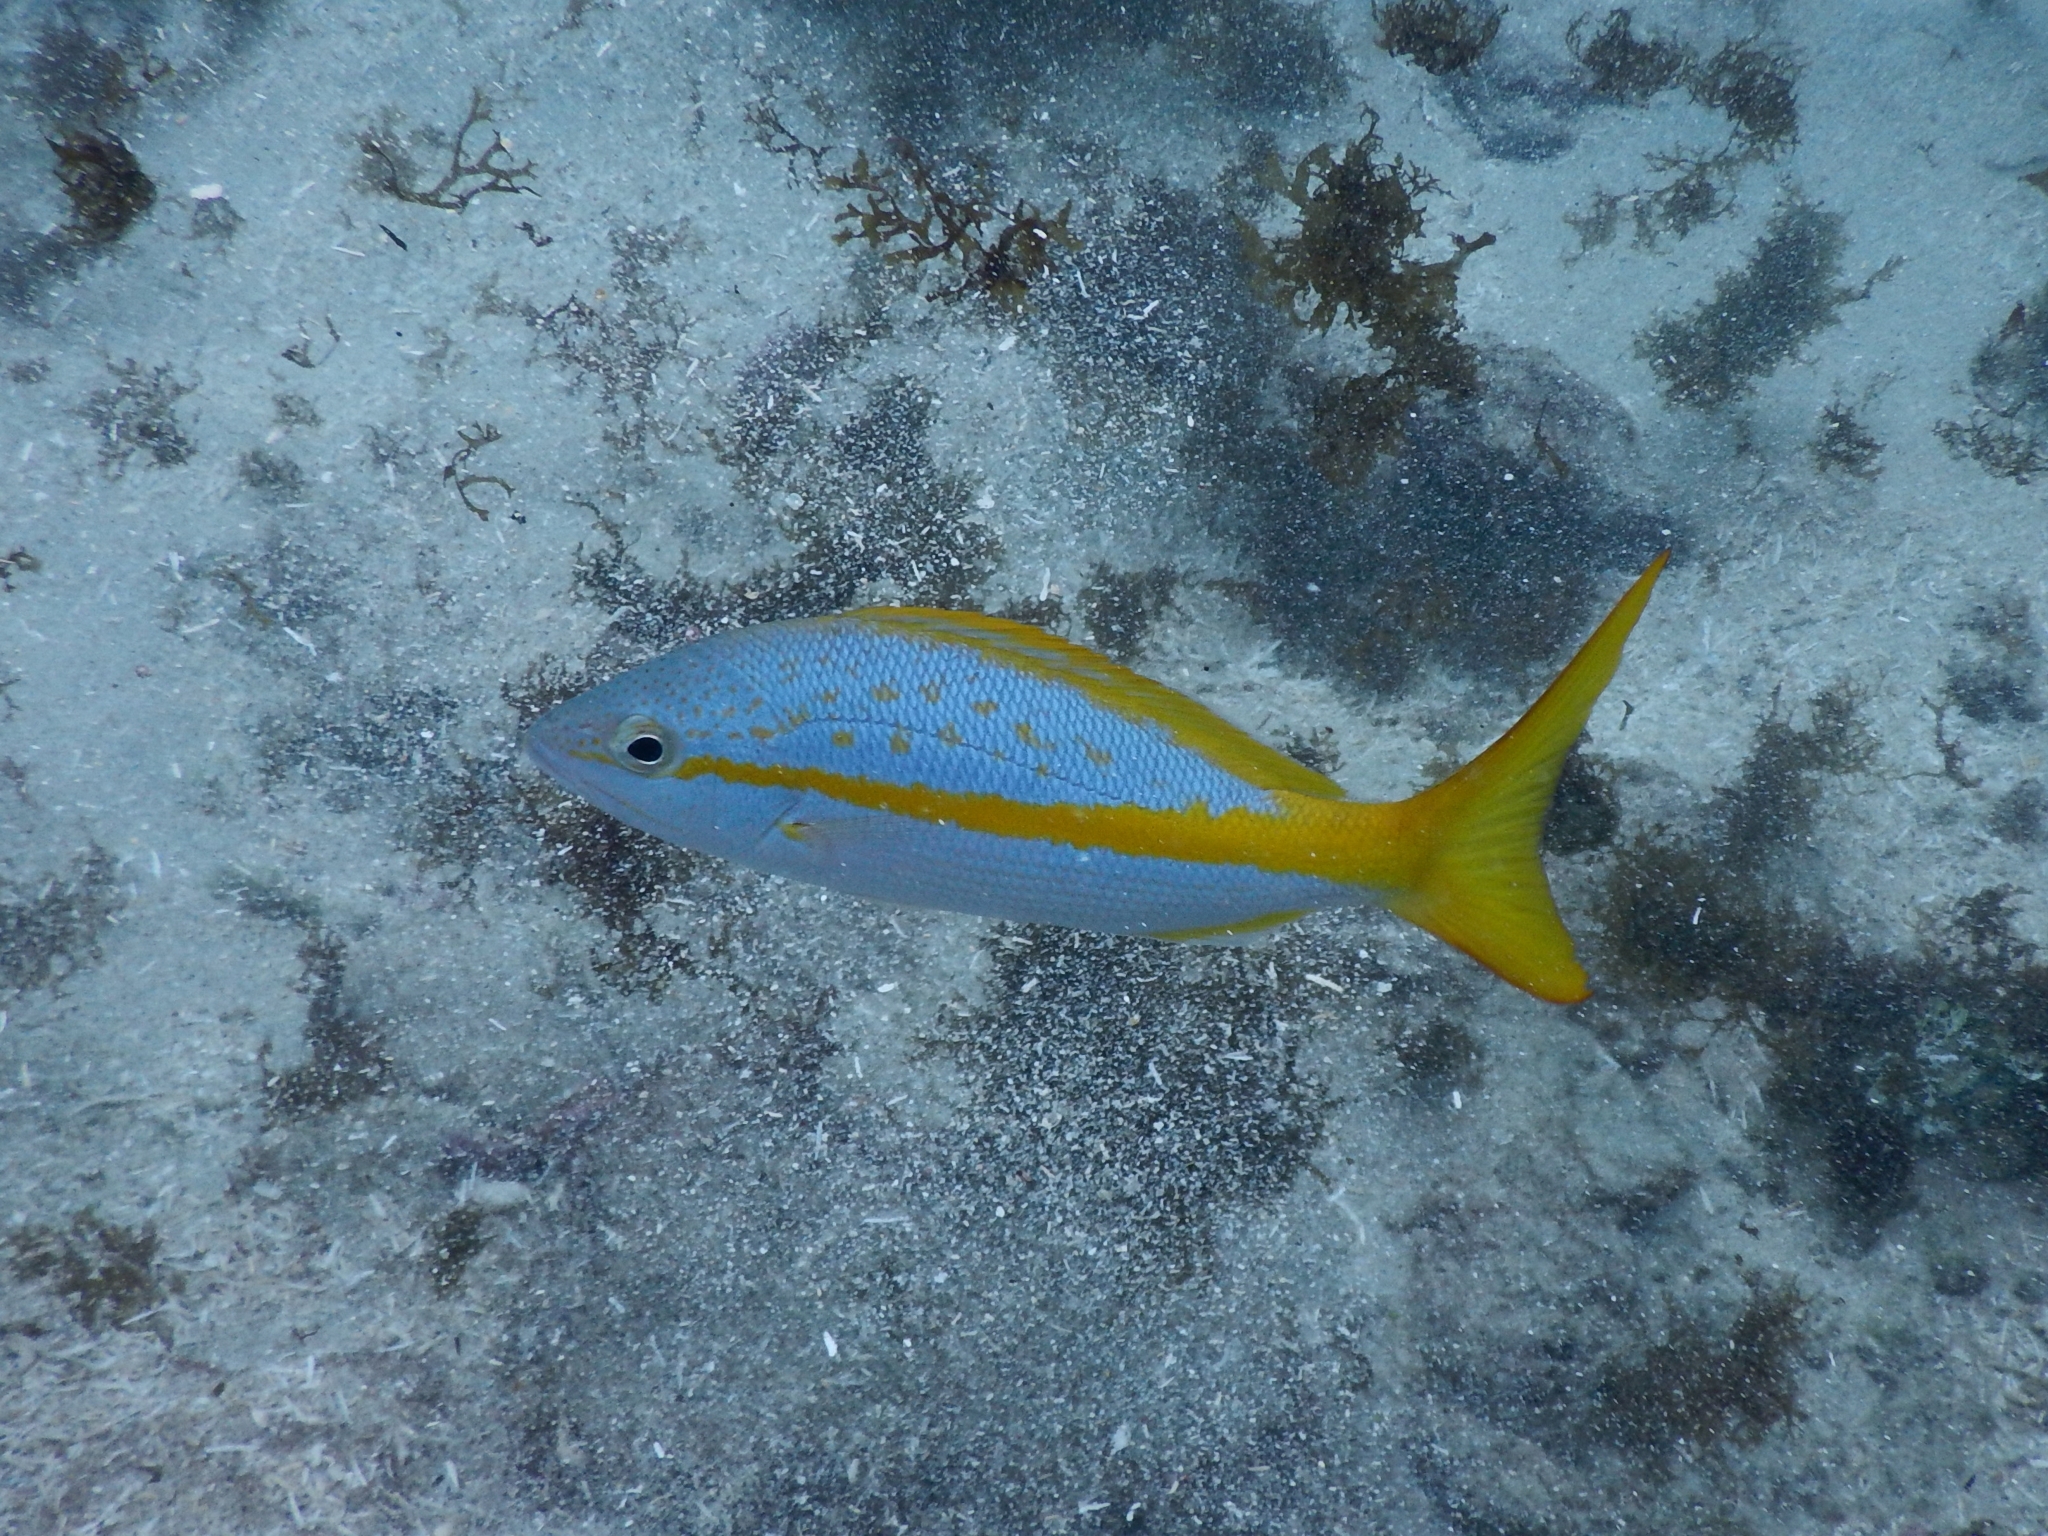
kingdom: Animalia
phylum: Chordata
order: Perciformes
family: Lutjanidae
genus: Ocyurus
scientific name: Ocyurus chrysurus
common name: Yellowtail snapper
